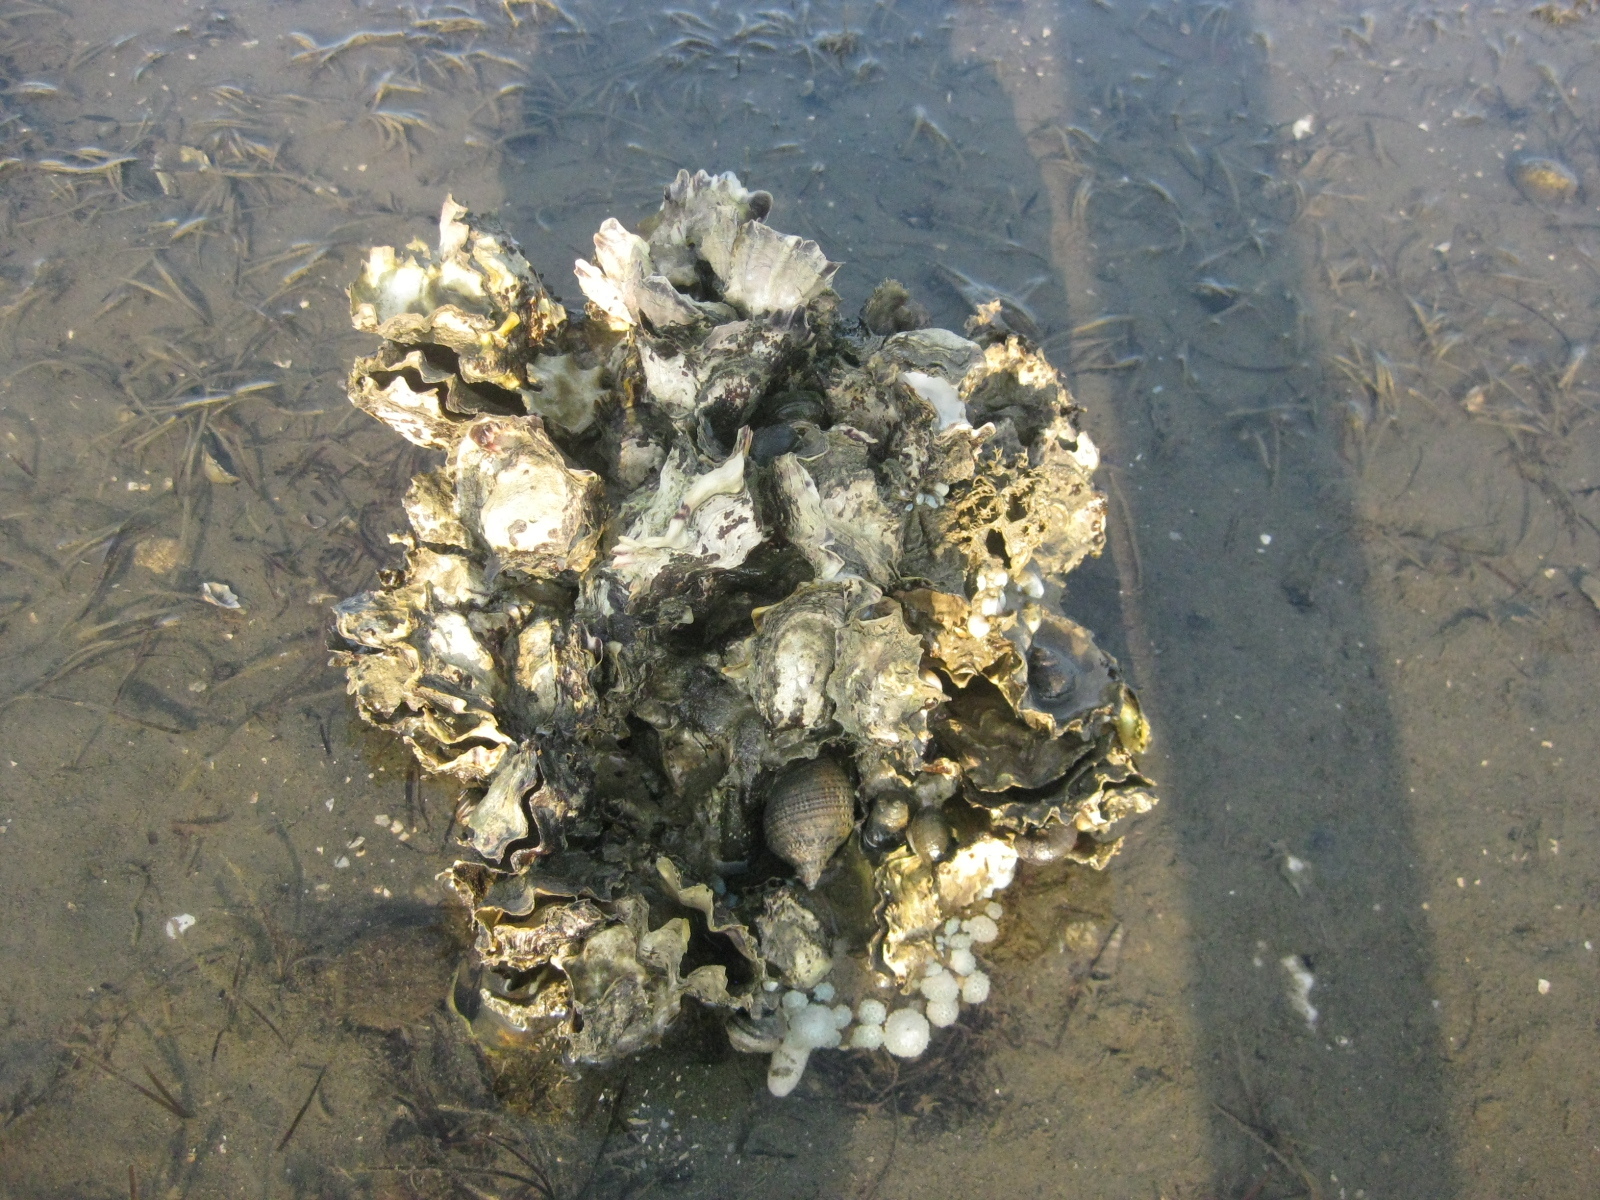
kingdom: Animalia
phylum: Mollusca
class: Bivalvia
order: Ostreida
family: Ostreidae
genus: Magallana
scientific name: Magallana gigas
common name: Pacific oyster
